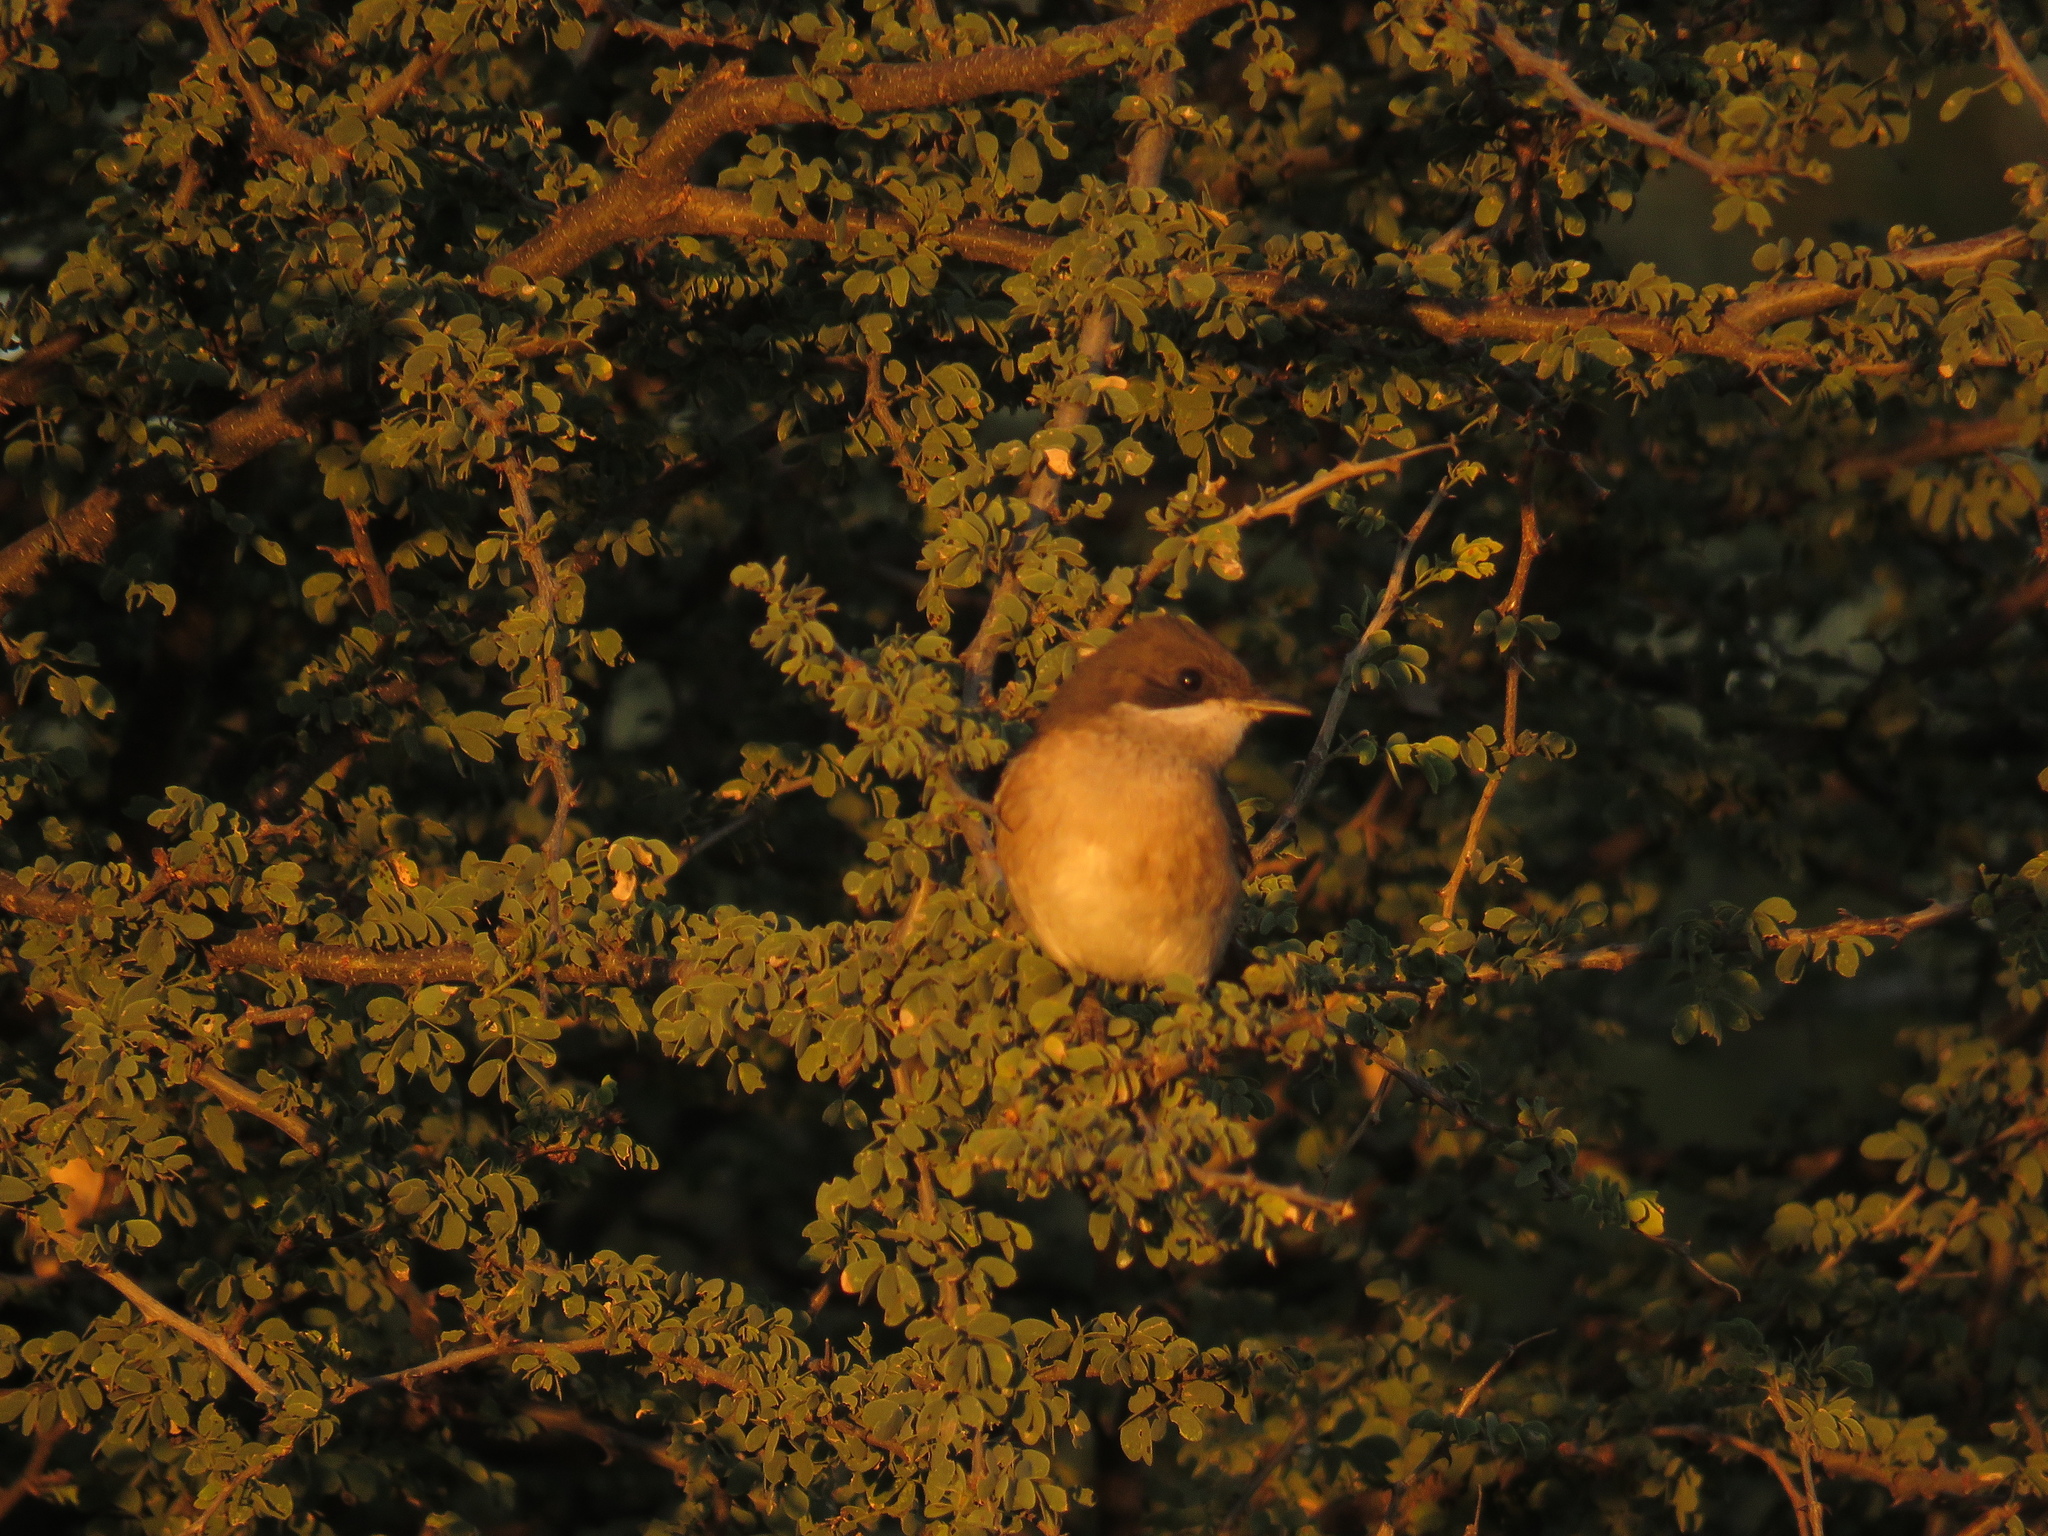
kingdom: Animalia
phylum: Chordata
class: Aves
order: Passeriformes
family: Muscicapidae
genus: Sigelus
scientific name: Sigelus silens
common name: Fiscal flycatcher
